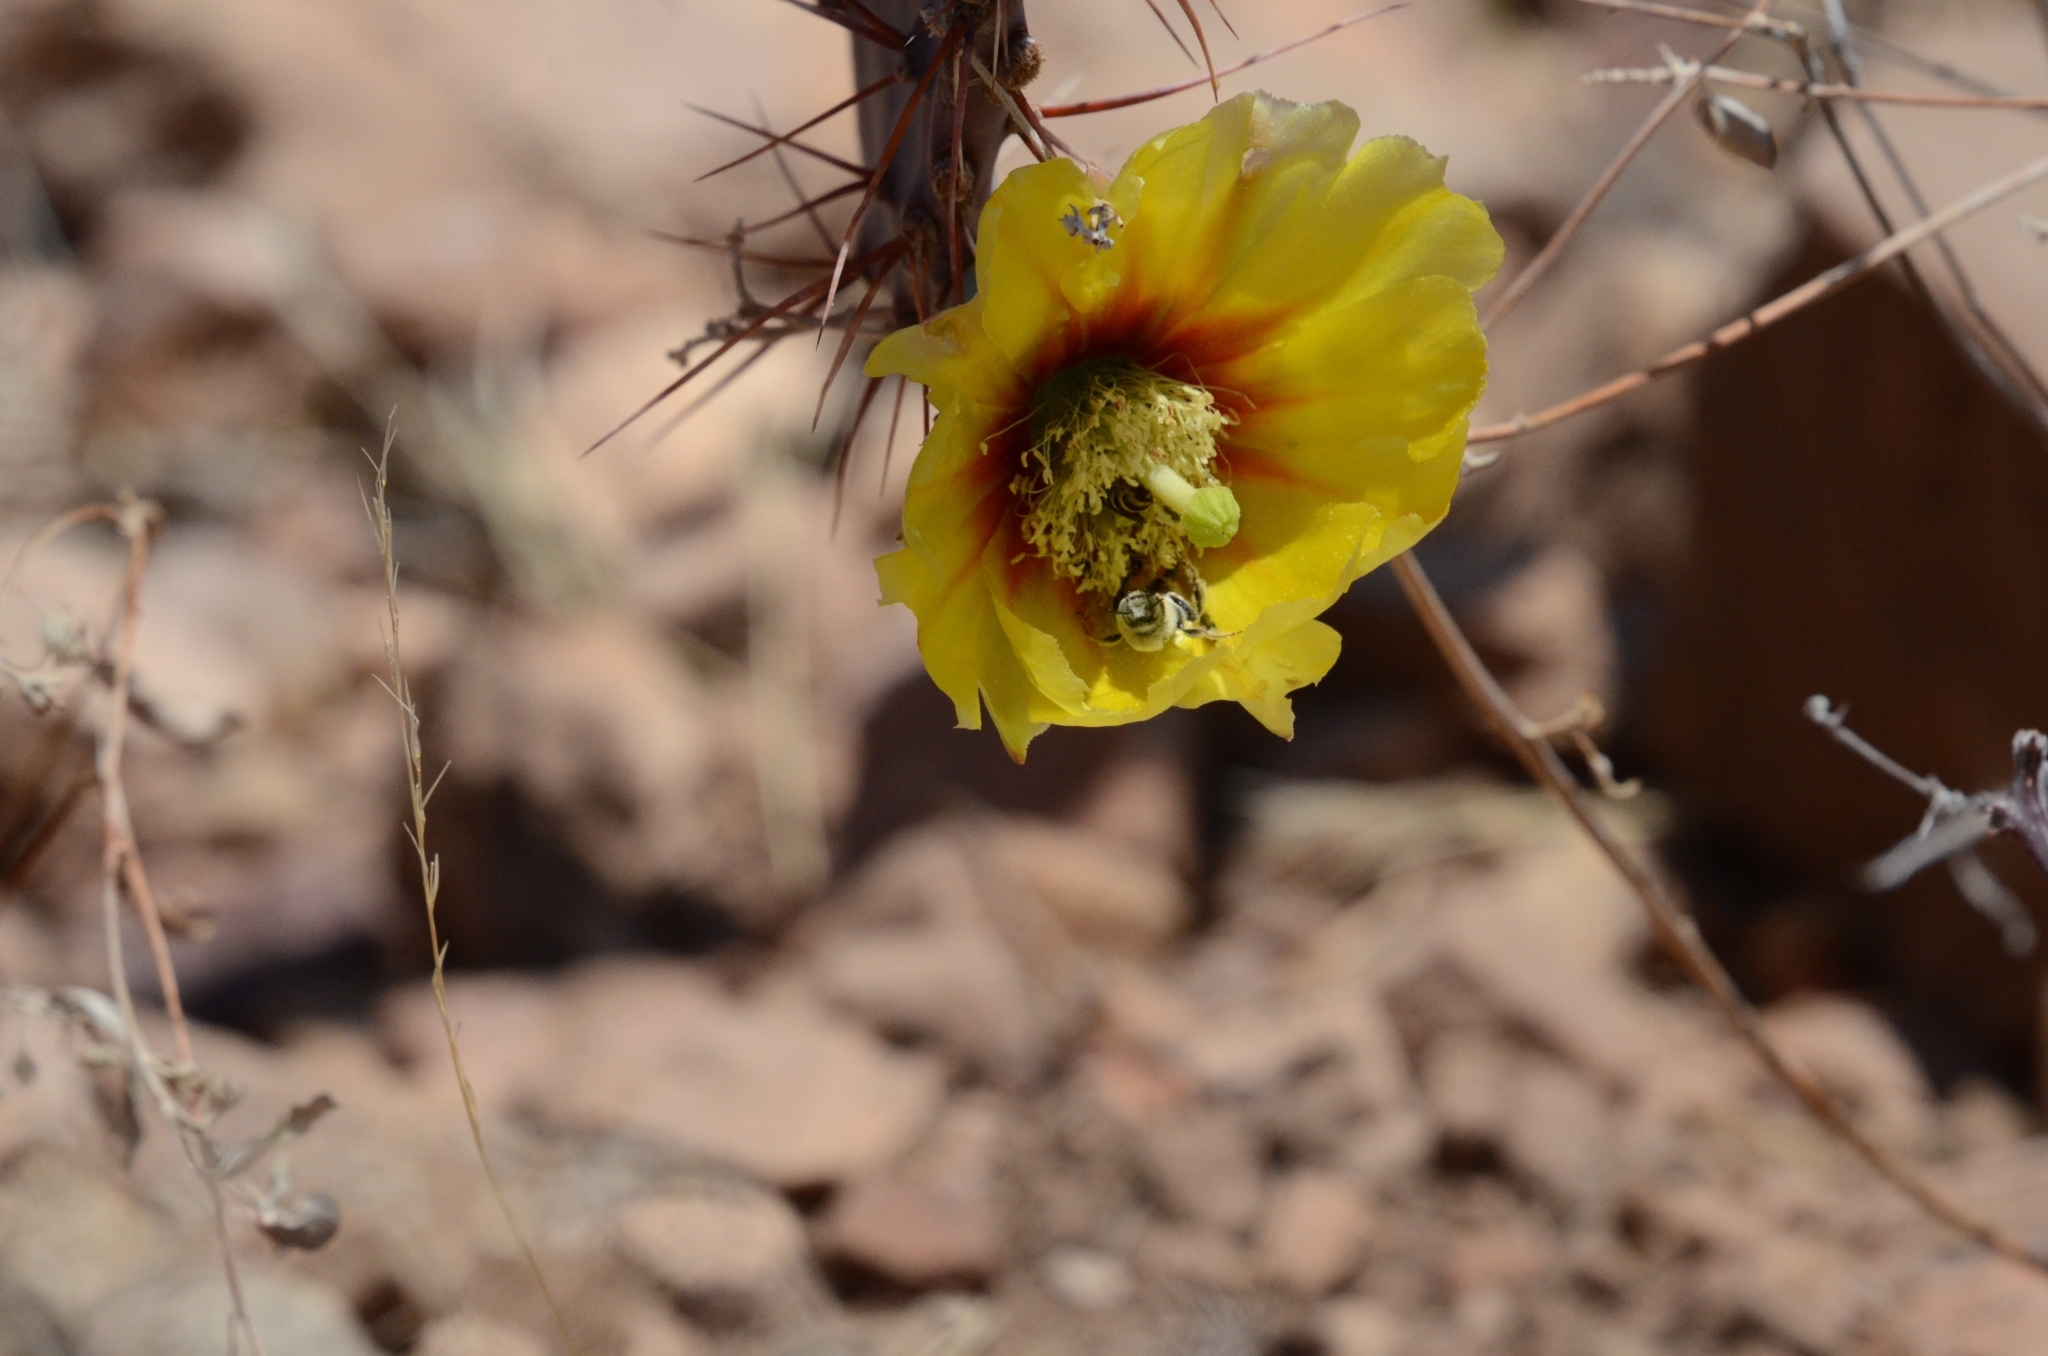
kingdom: Animalia
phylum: Arthropoda
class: Insecta
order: Hymenoptera
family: Apidae
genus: Diadasia
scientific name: Diadasia
